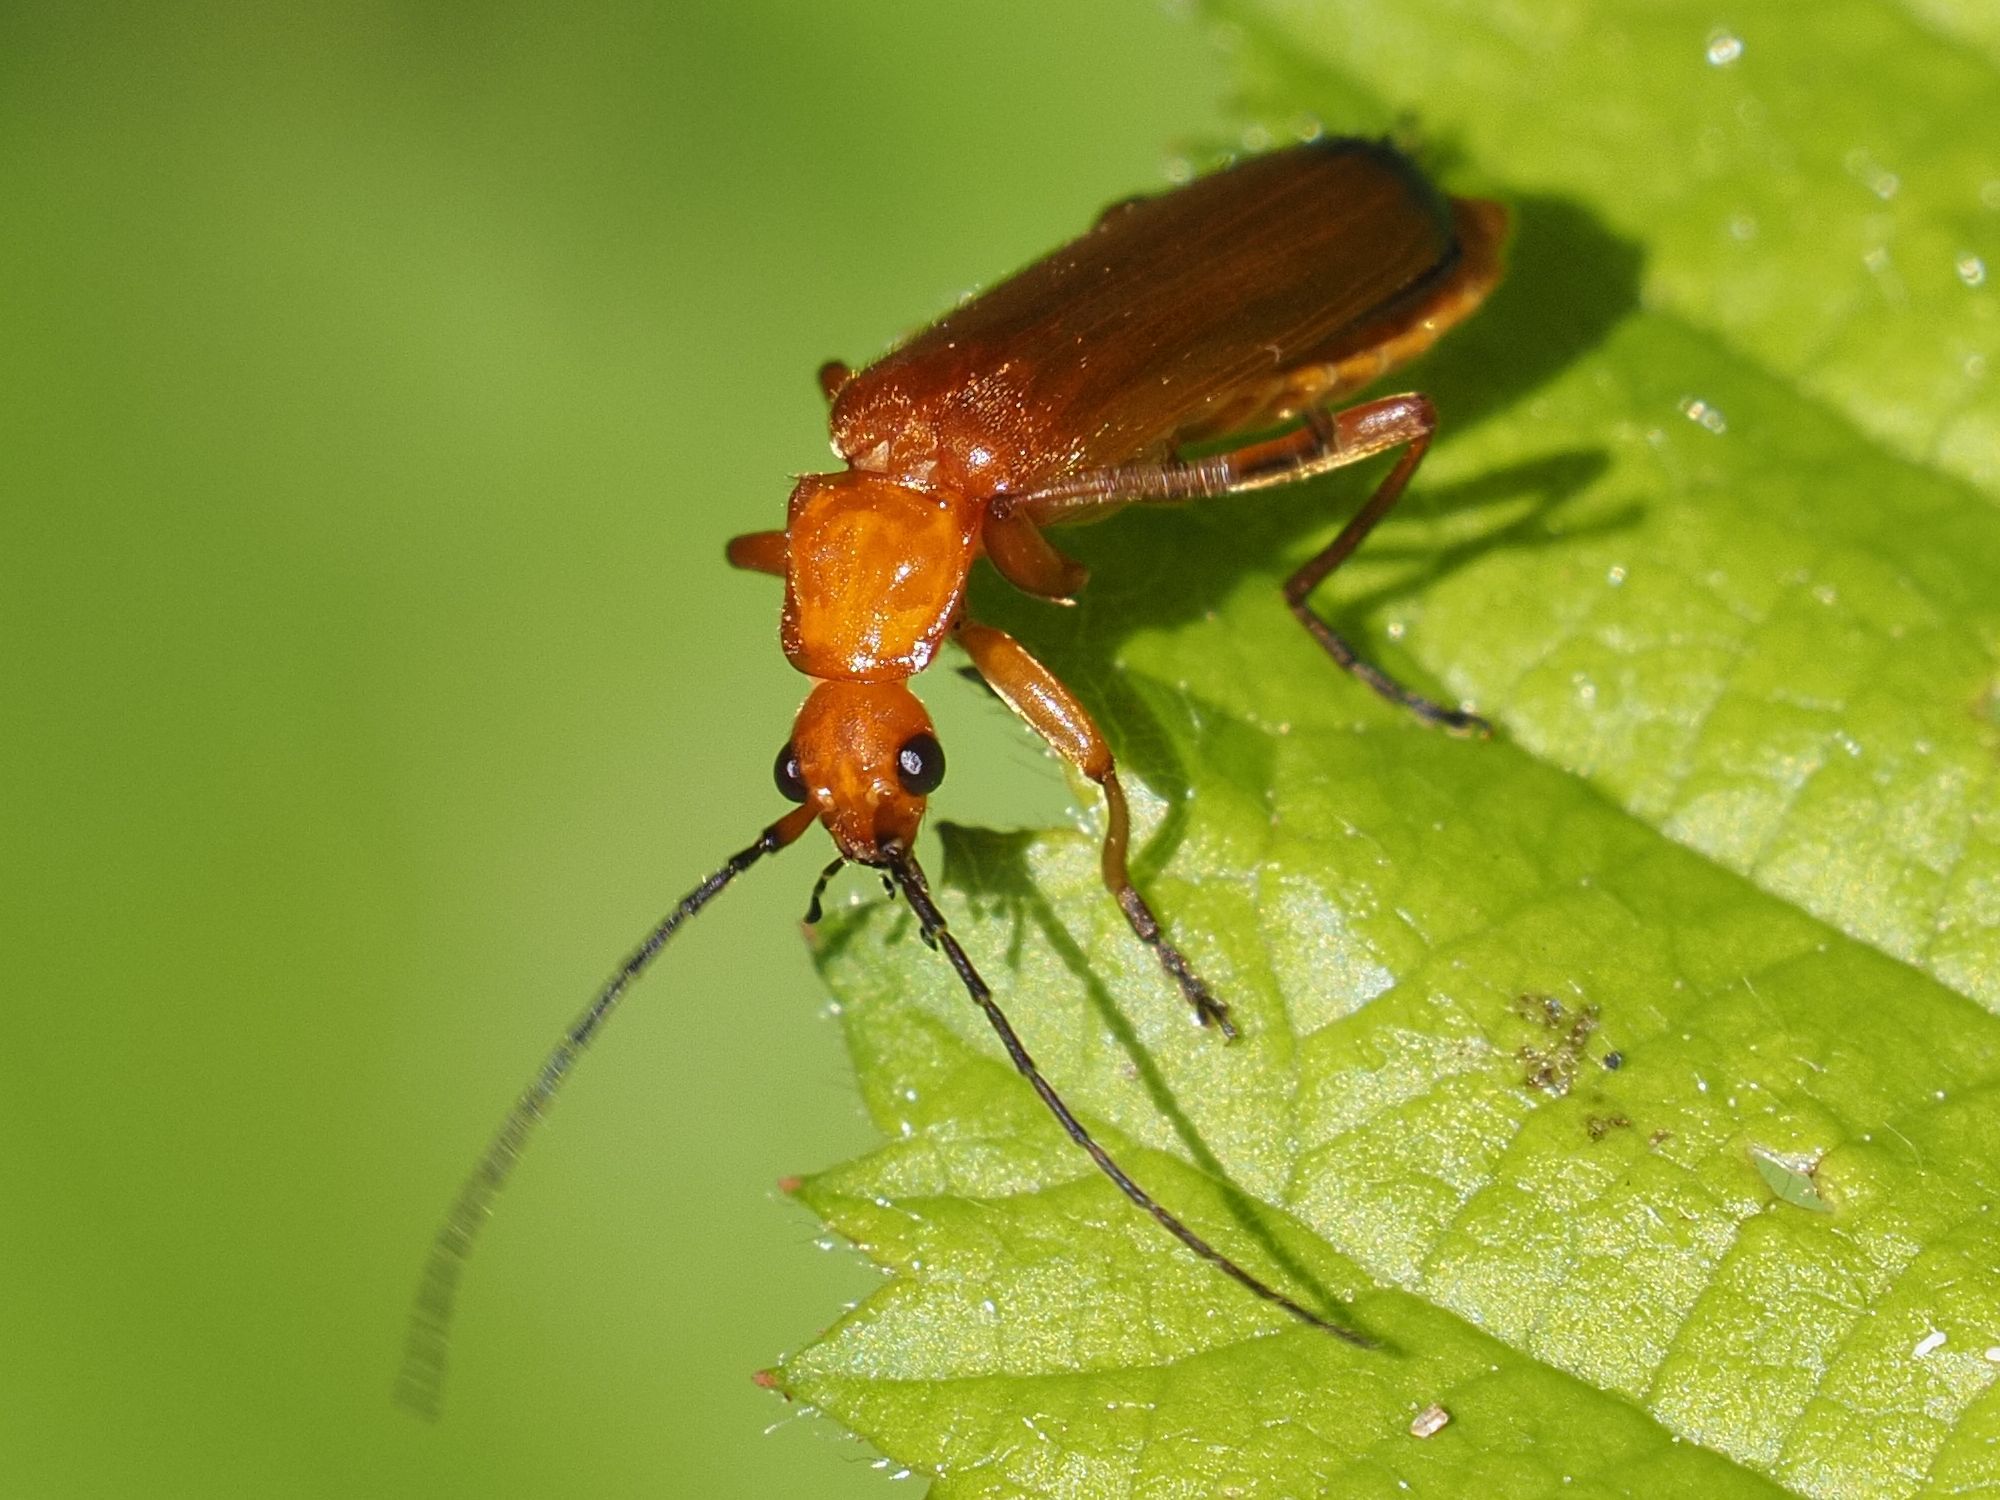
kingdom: Animalia
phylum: Arthropoda
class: Insecta
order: Coleoptera
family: Cantharidae
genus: Rhagonycha
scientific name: Rhagonycha fulva
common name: Common red soldier beetle
